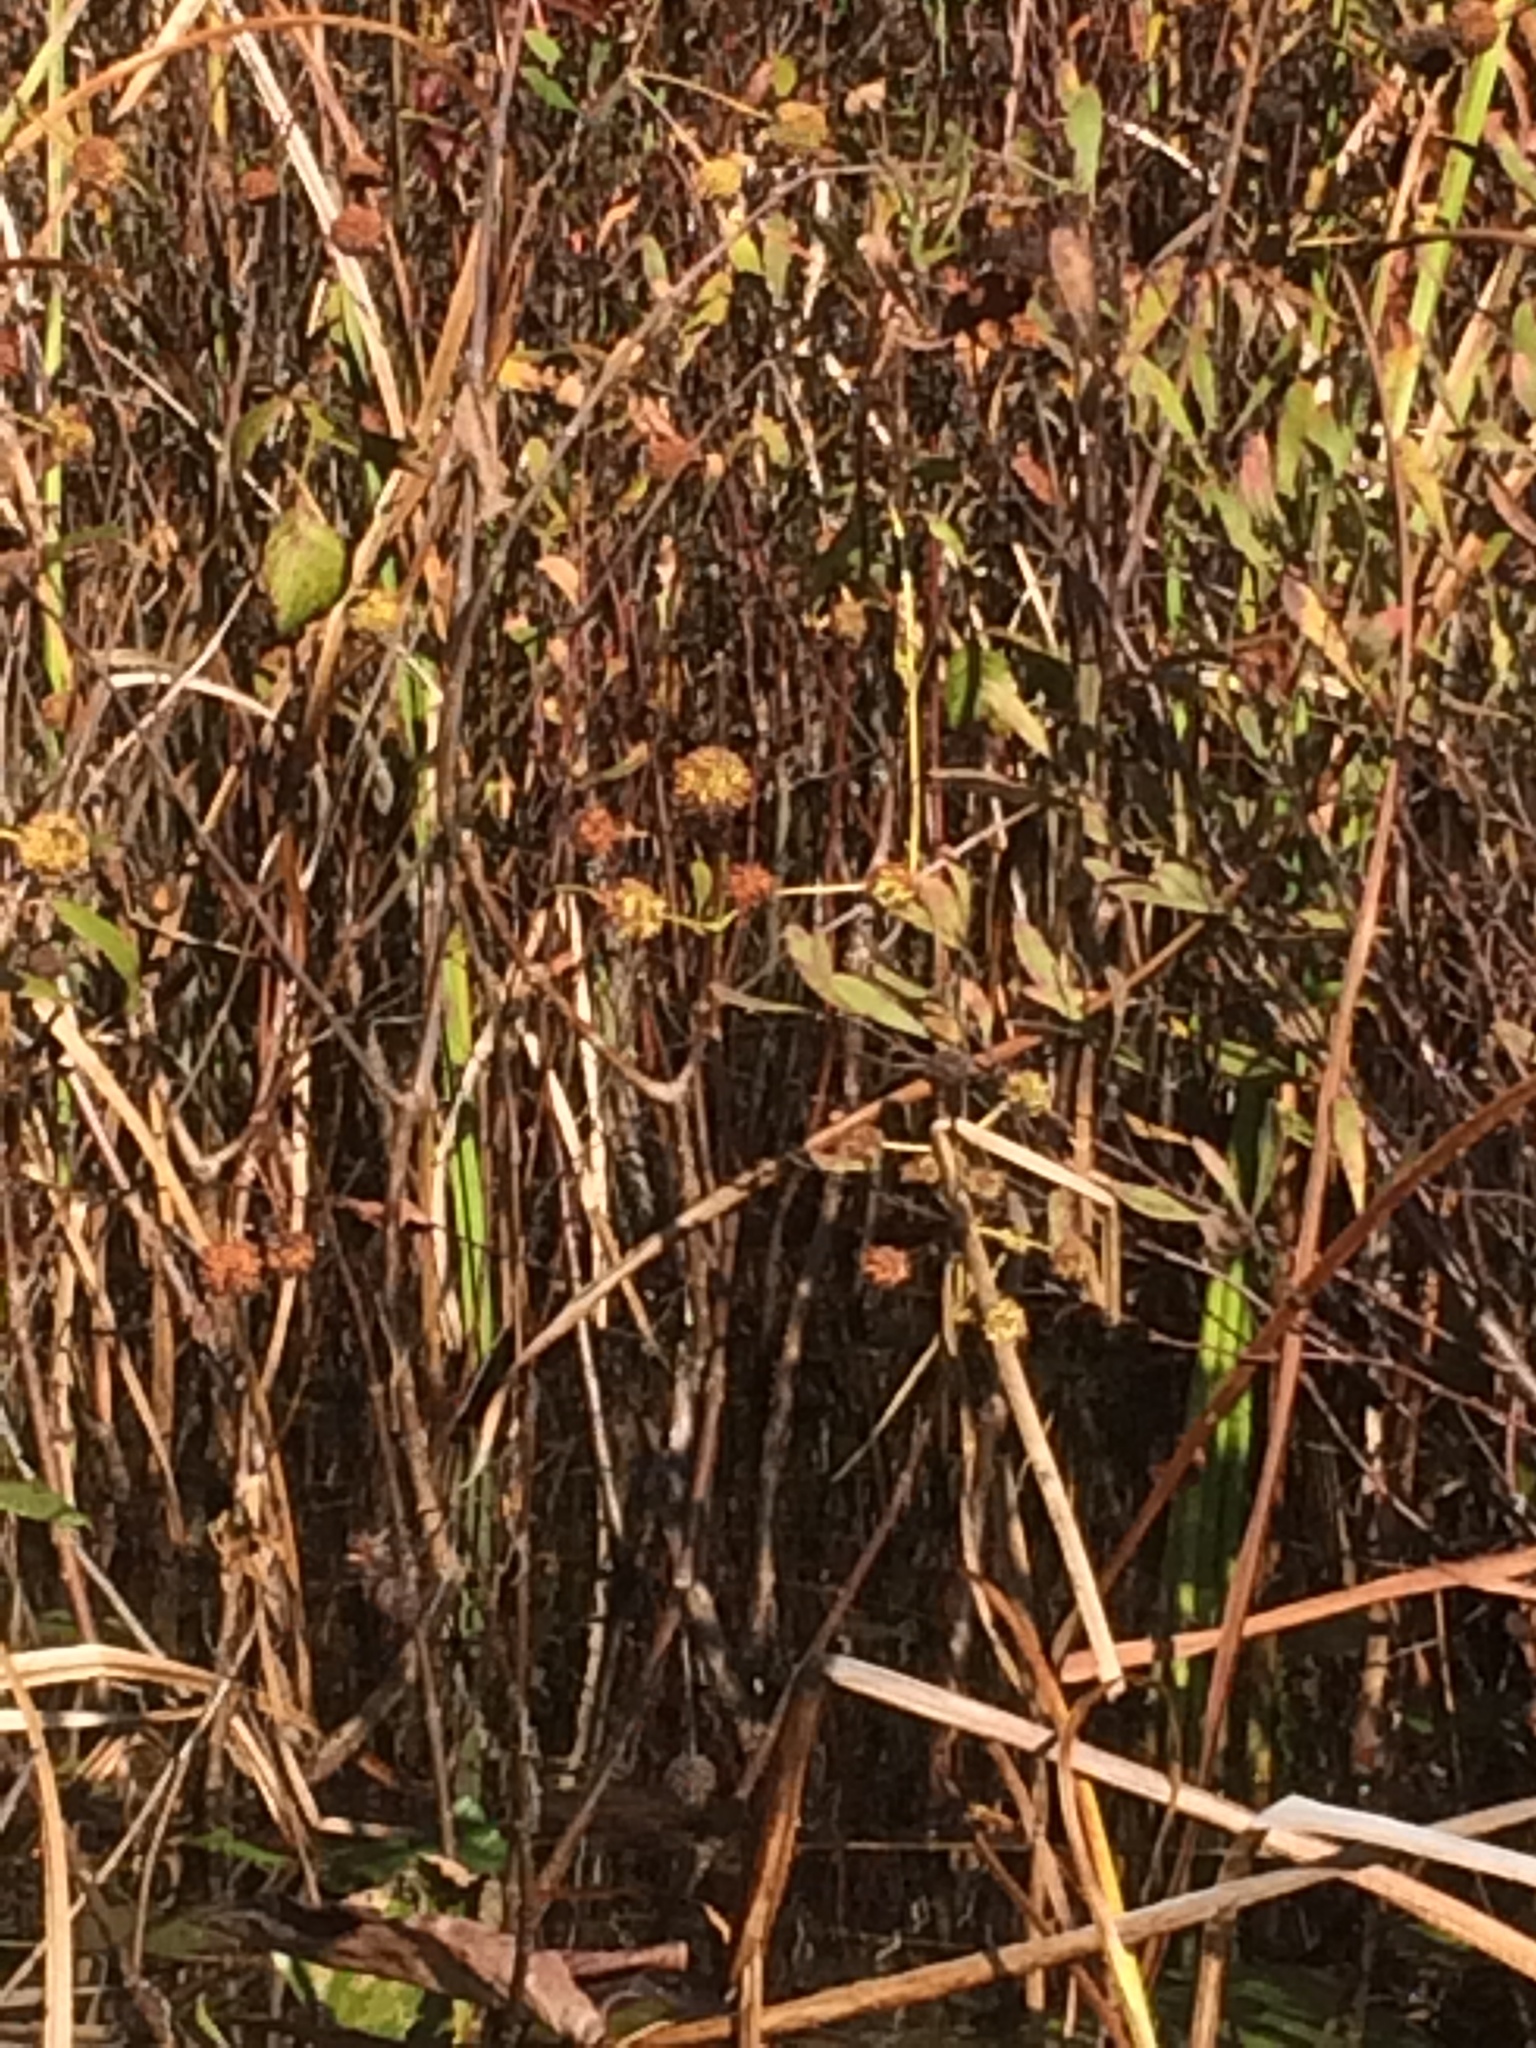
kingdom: Plantae
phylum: Tracheophyta
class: Magnoliopsida
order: Gentianales
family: Rubiaceae
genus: Cephalanthus
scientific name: Cephalanthus occidentalis
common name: Button-willow
